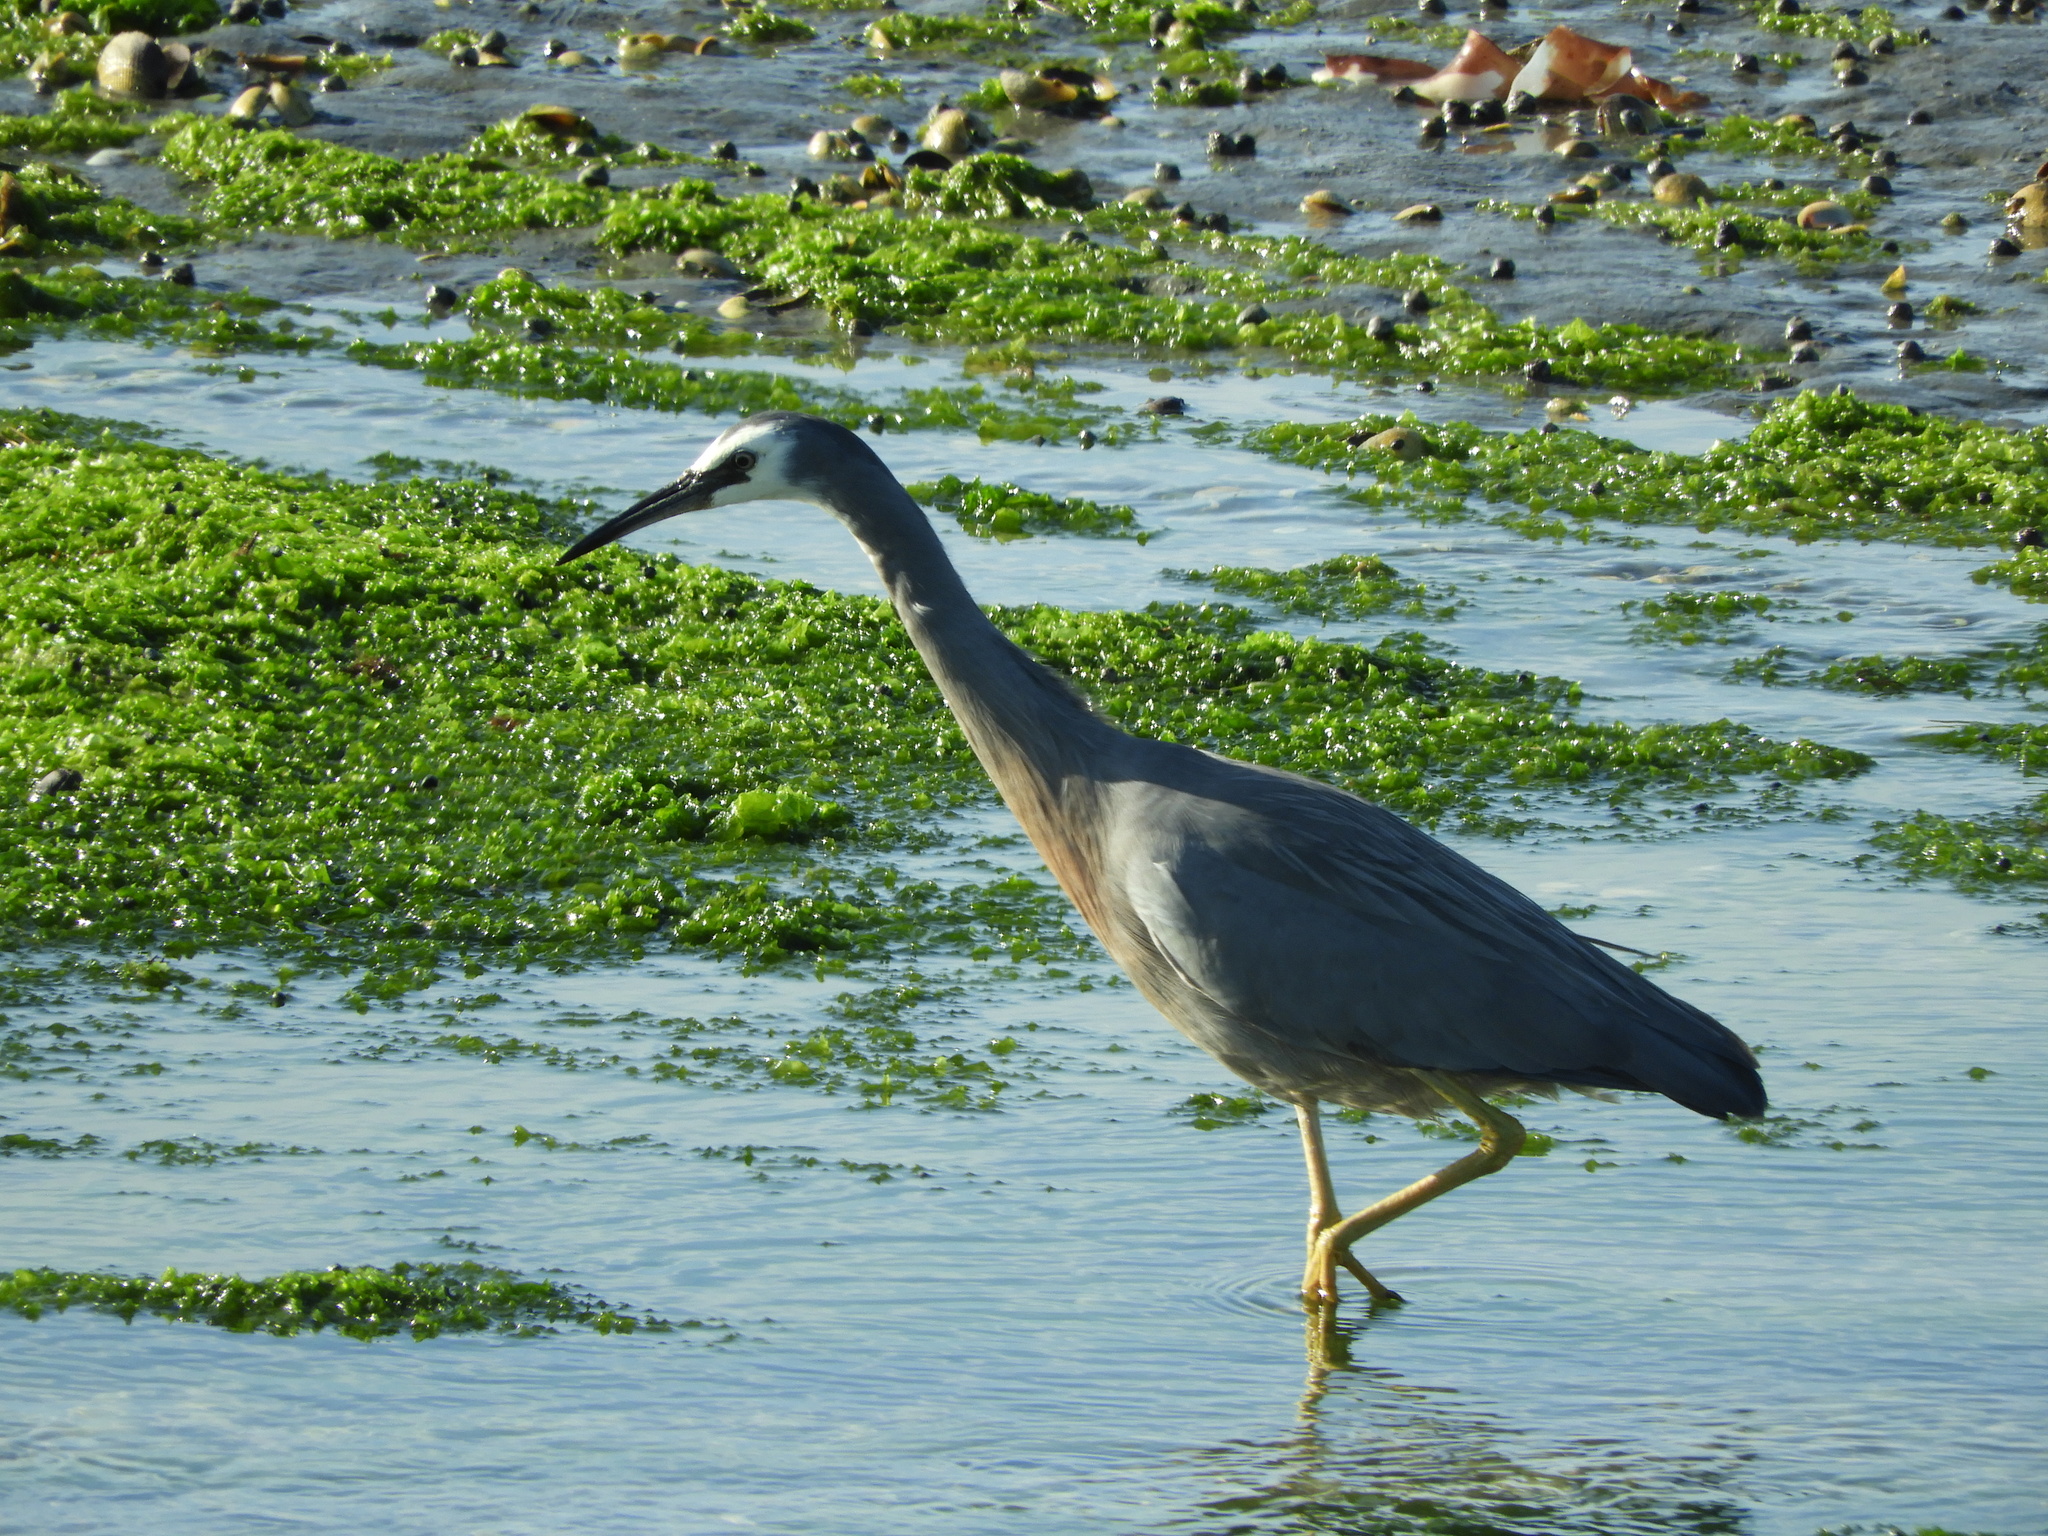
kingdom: Animalia
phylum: Chordata
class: Aves
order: Pelecaniformes
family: Ardeidae
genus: Egretta
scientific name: Egretta novaehollandiae
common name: White-faced heron
